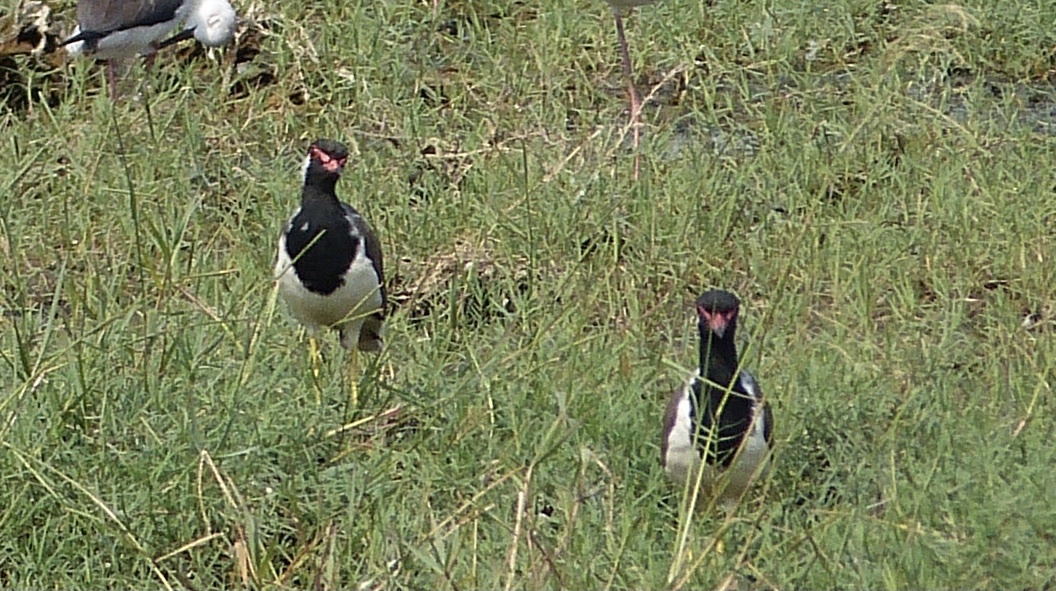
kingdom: Animalia
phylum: Chordata
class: Aves
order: Charadriiformes
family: Charadriidae
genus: Vanellus
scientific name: Vanellus indicus
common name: Red-wattled lapwing
